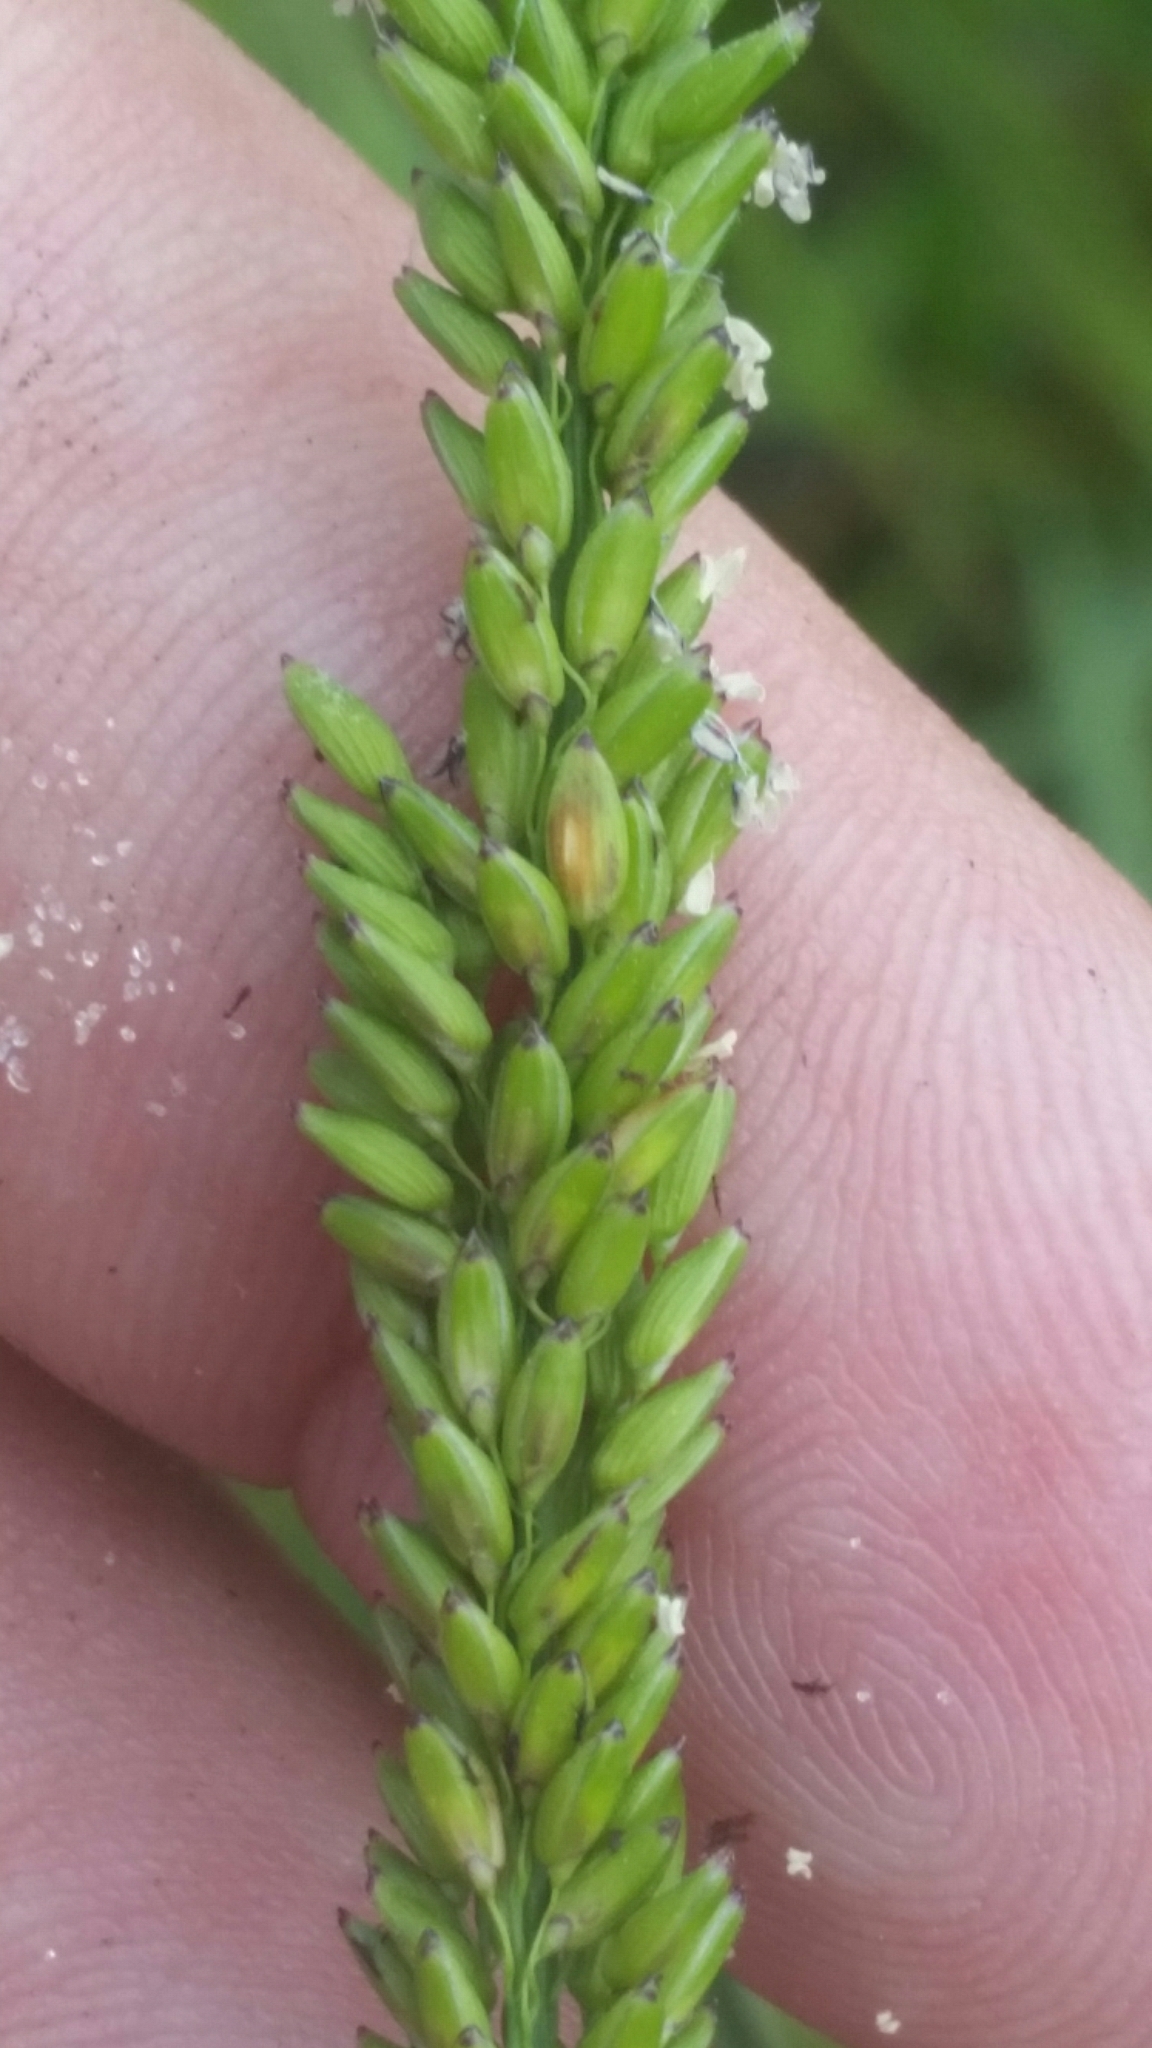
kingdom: Plantae
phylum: Tracheophyta
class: Liliopsida
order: Poales
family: Poaceae
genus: Sacciolepis
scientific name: Sacciolepis striata
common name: American cupscale
